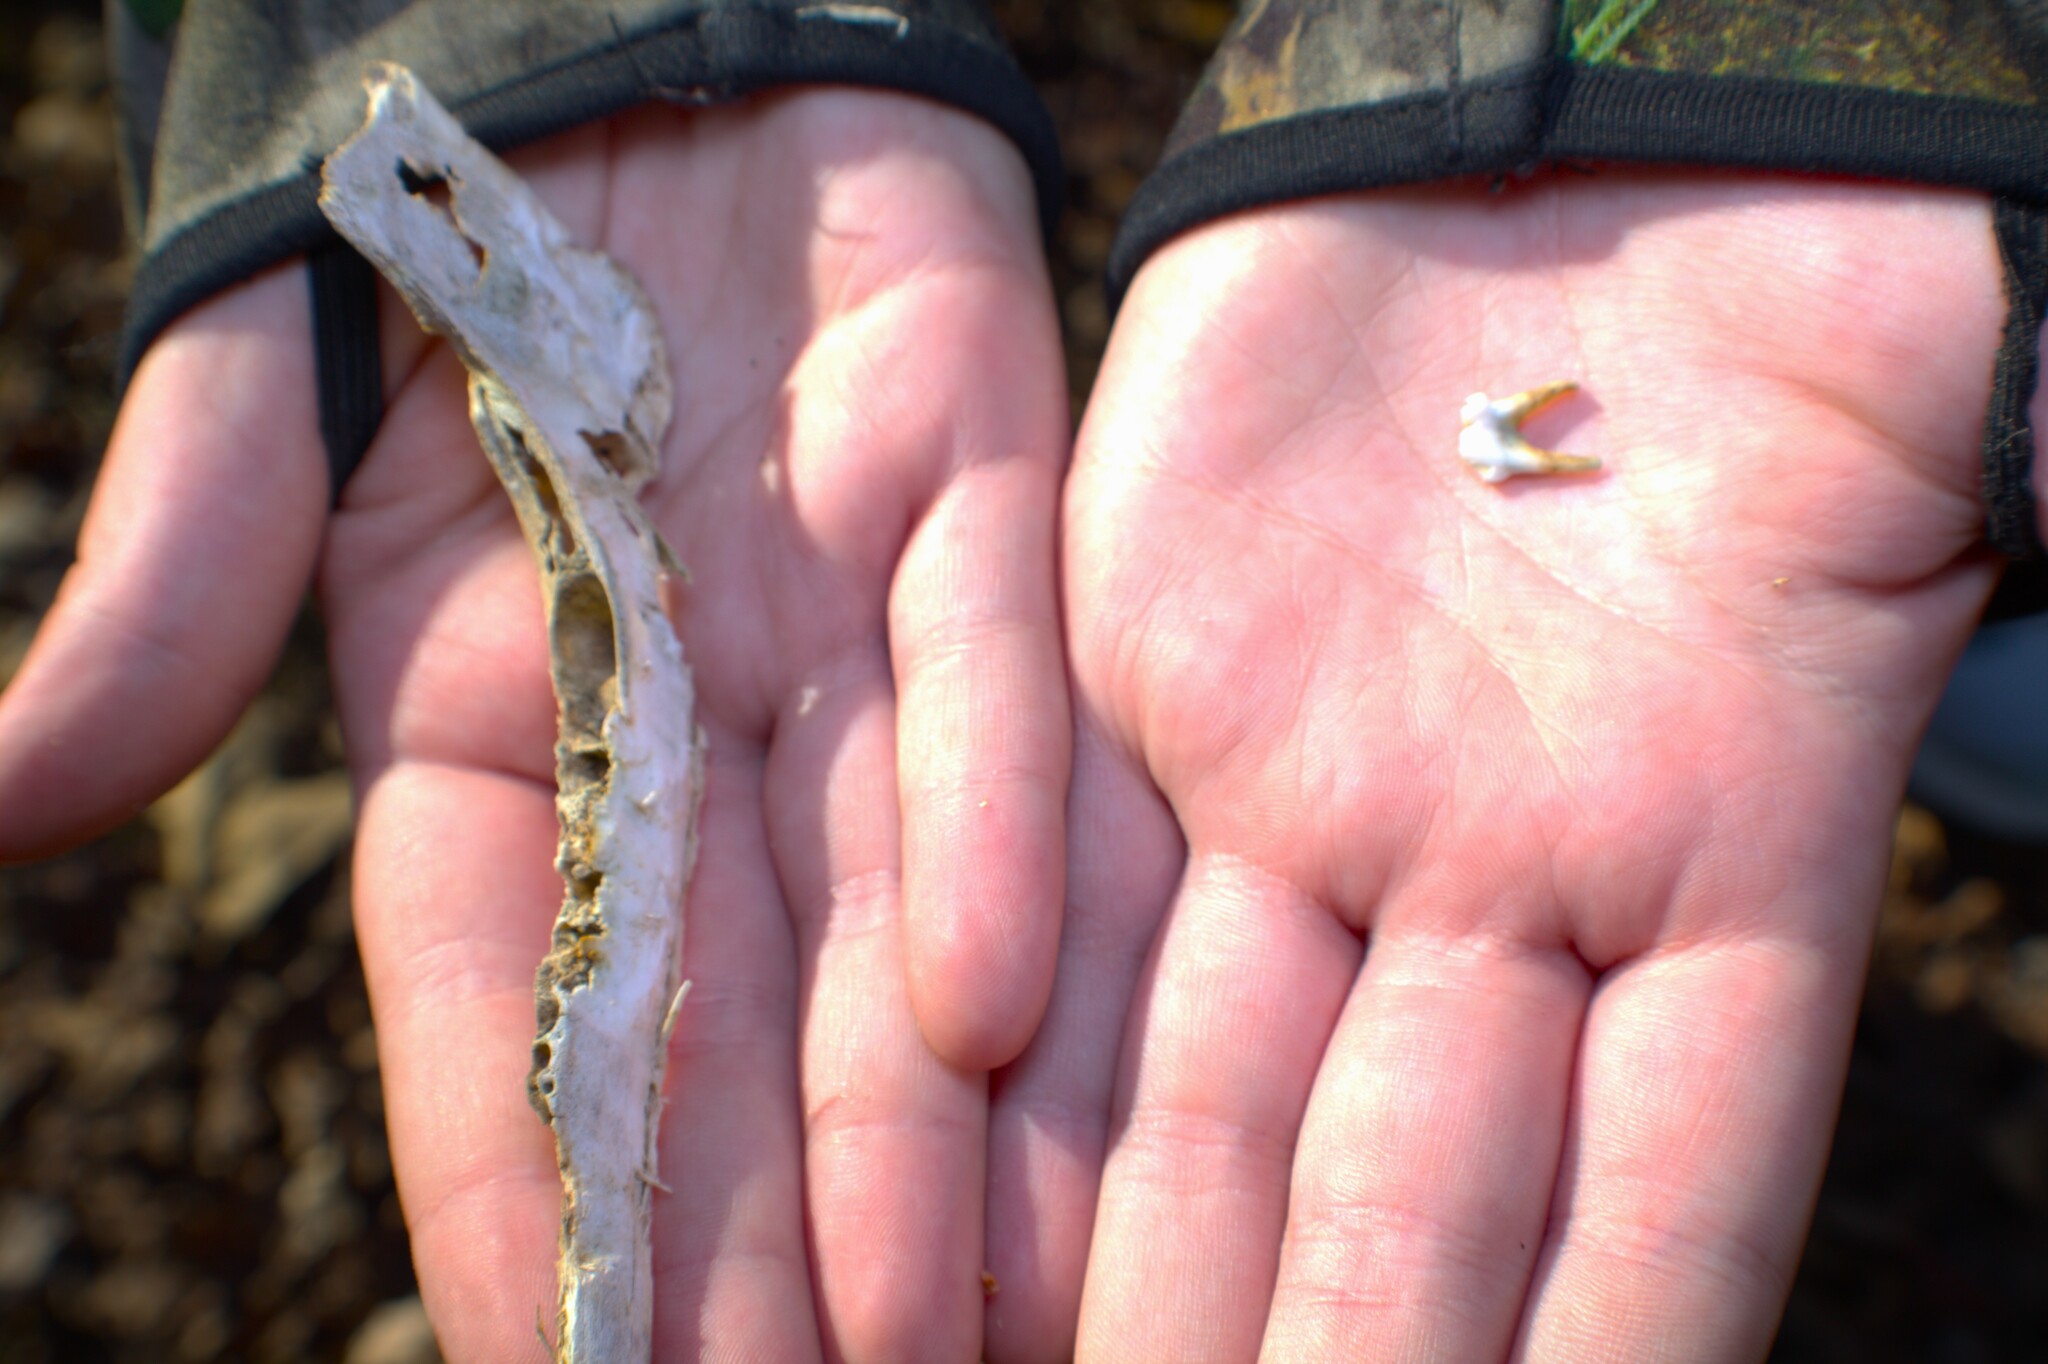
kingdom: Animalia
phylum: Chordata
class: Mammalia
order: Artiodactyla
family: Cervidae
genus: Odocoileus
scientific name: Odocoileus virginianus
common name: White-tailed deer
